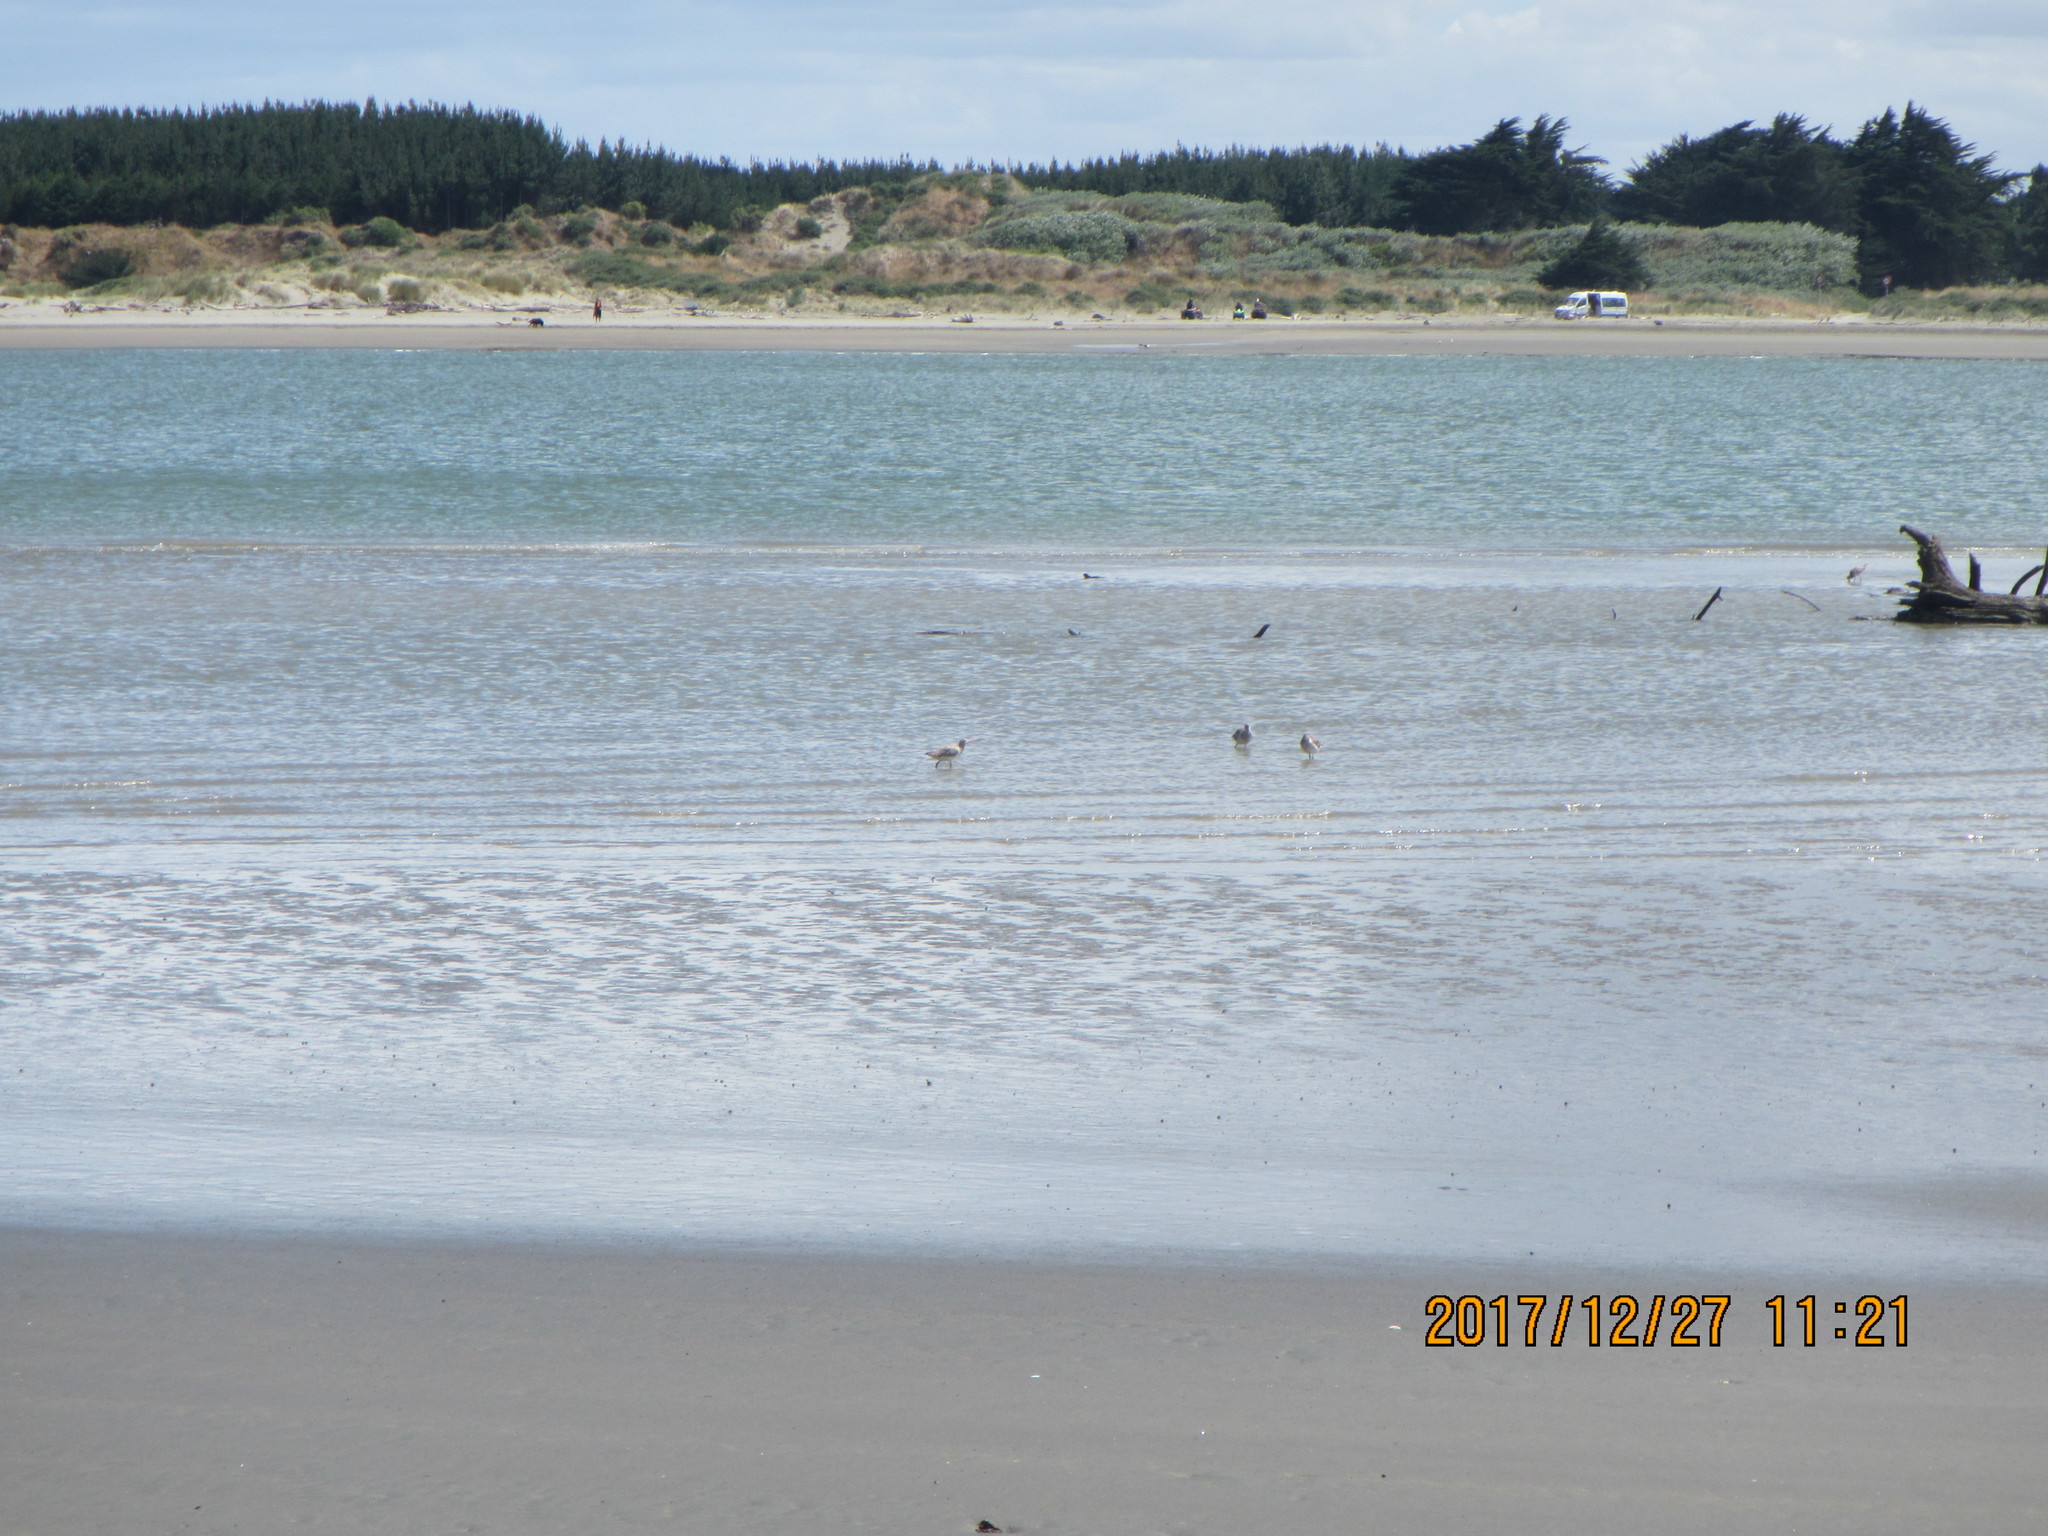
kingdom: Animalia
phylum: Chordata
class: Aves
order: Charadriiformes
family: Scolopacidae
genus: Limosa
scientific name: Limosa lapponica
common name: Bar-tailed godwit
